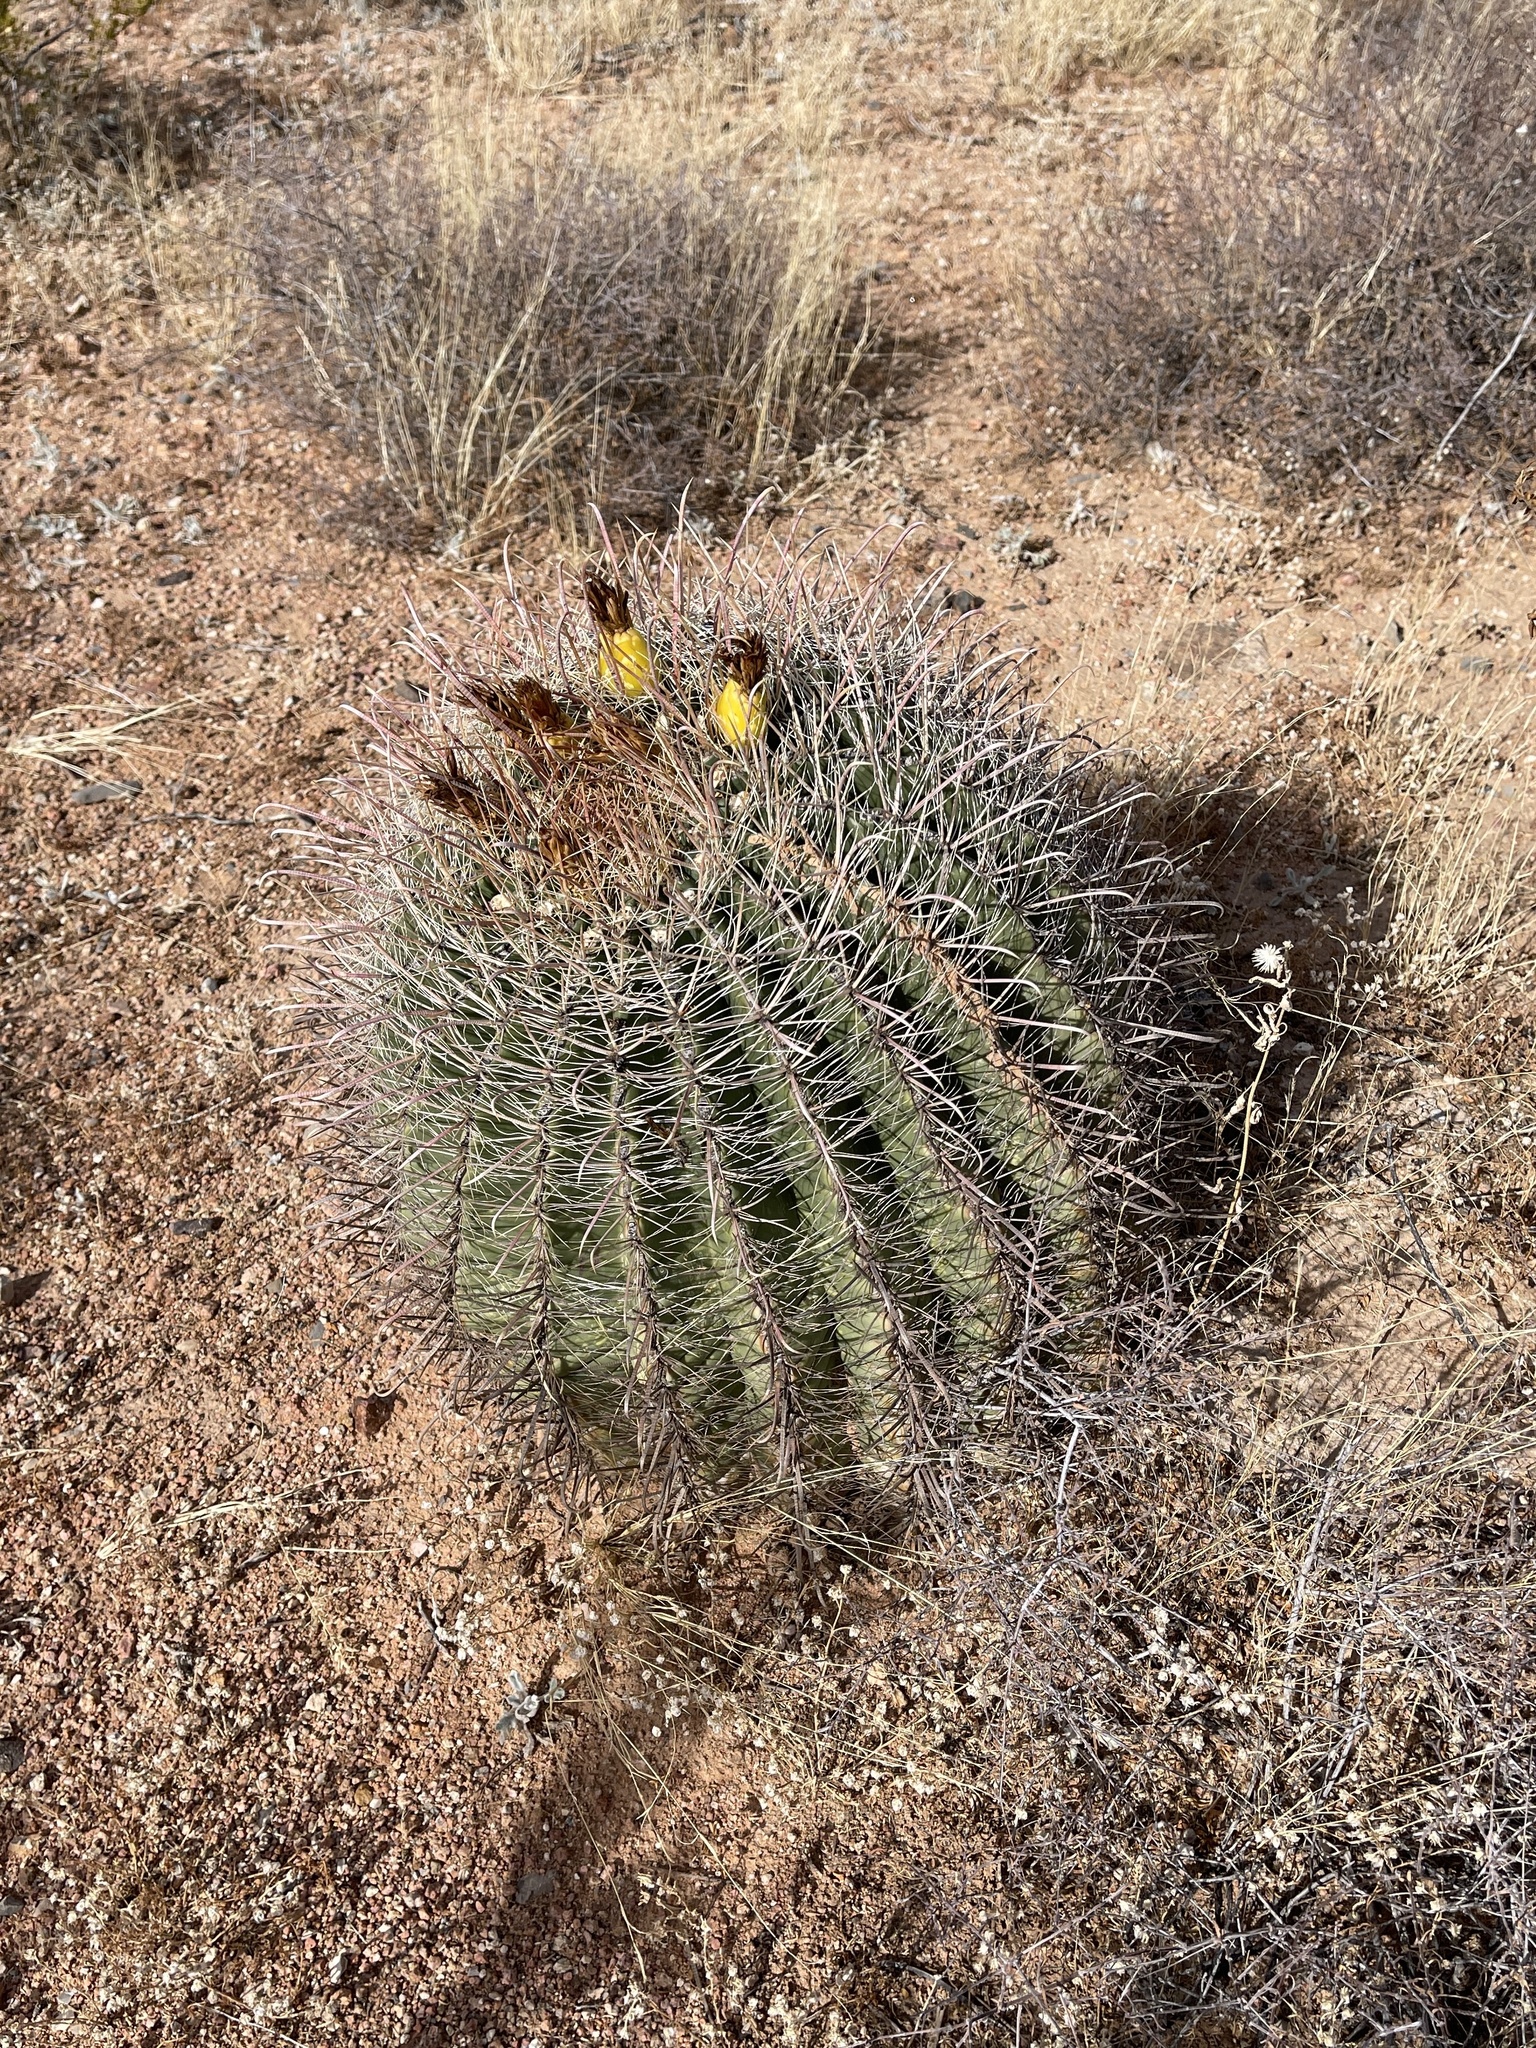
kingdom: Plantae
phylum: Tracheophyta
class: Magnoliopsida
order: Caryophyllales
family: Cactaceae
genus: Ferocactus
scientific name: Ferocactus wislizeni
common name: Candy barrel cactus
